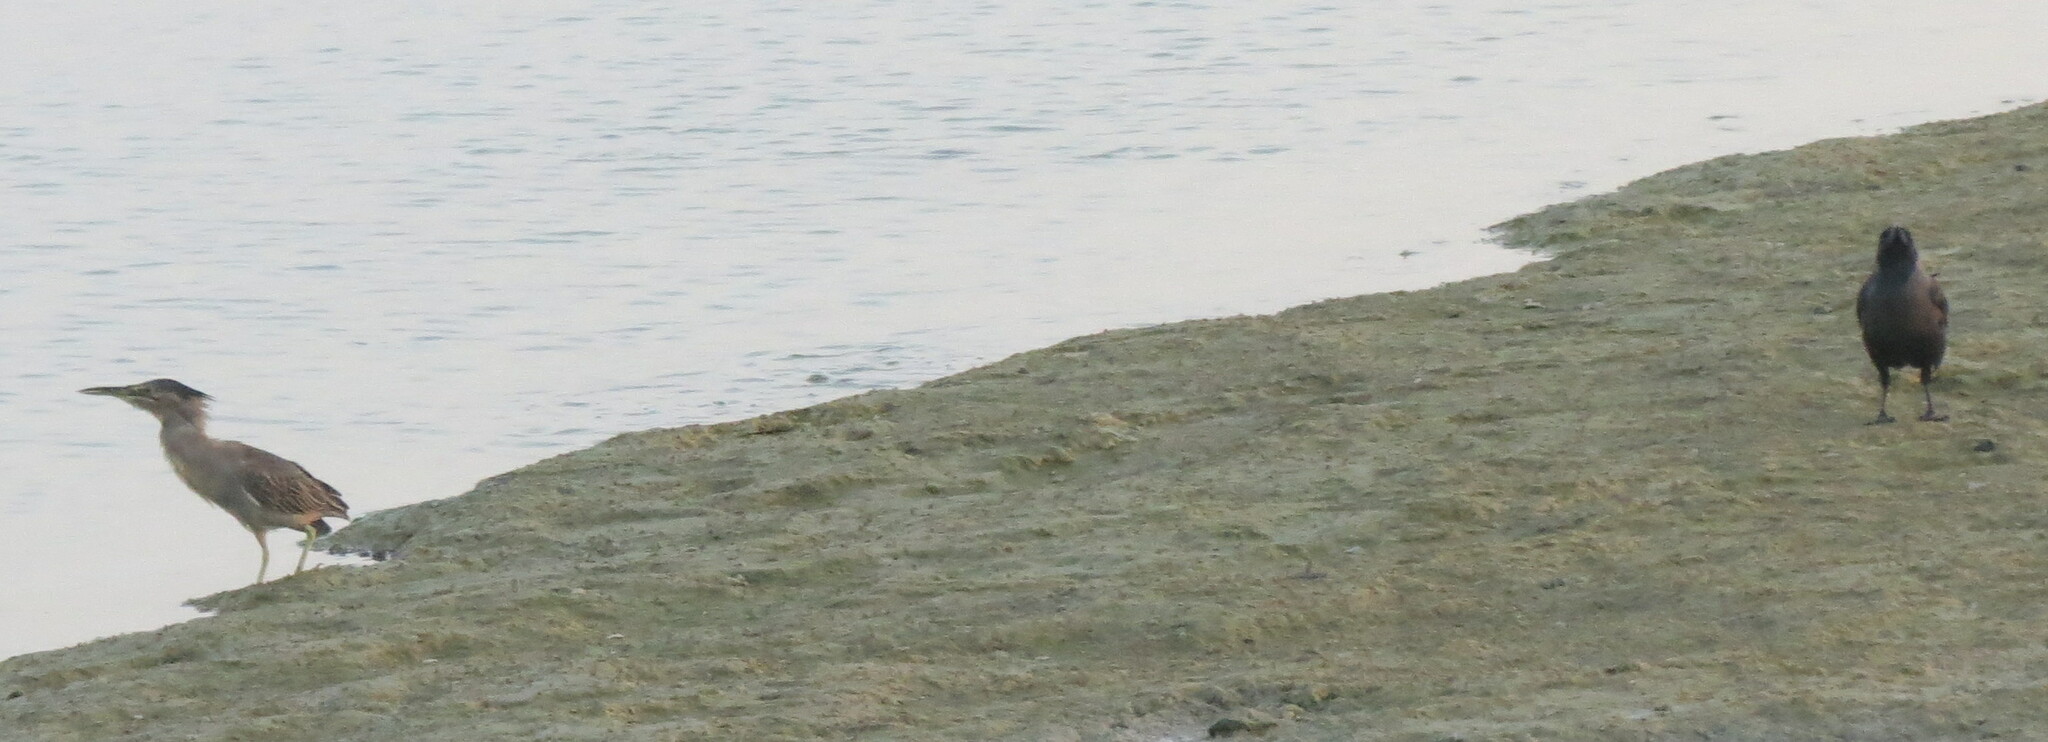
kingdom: Animalia
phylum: Chordata
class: Aves
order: Passeriformes
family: Corvidae
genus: Corvus
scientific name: Corvus splendens
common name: House crow
